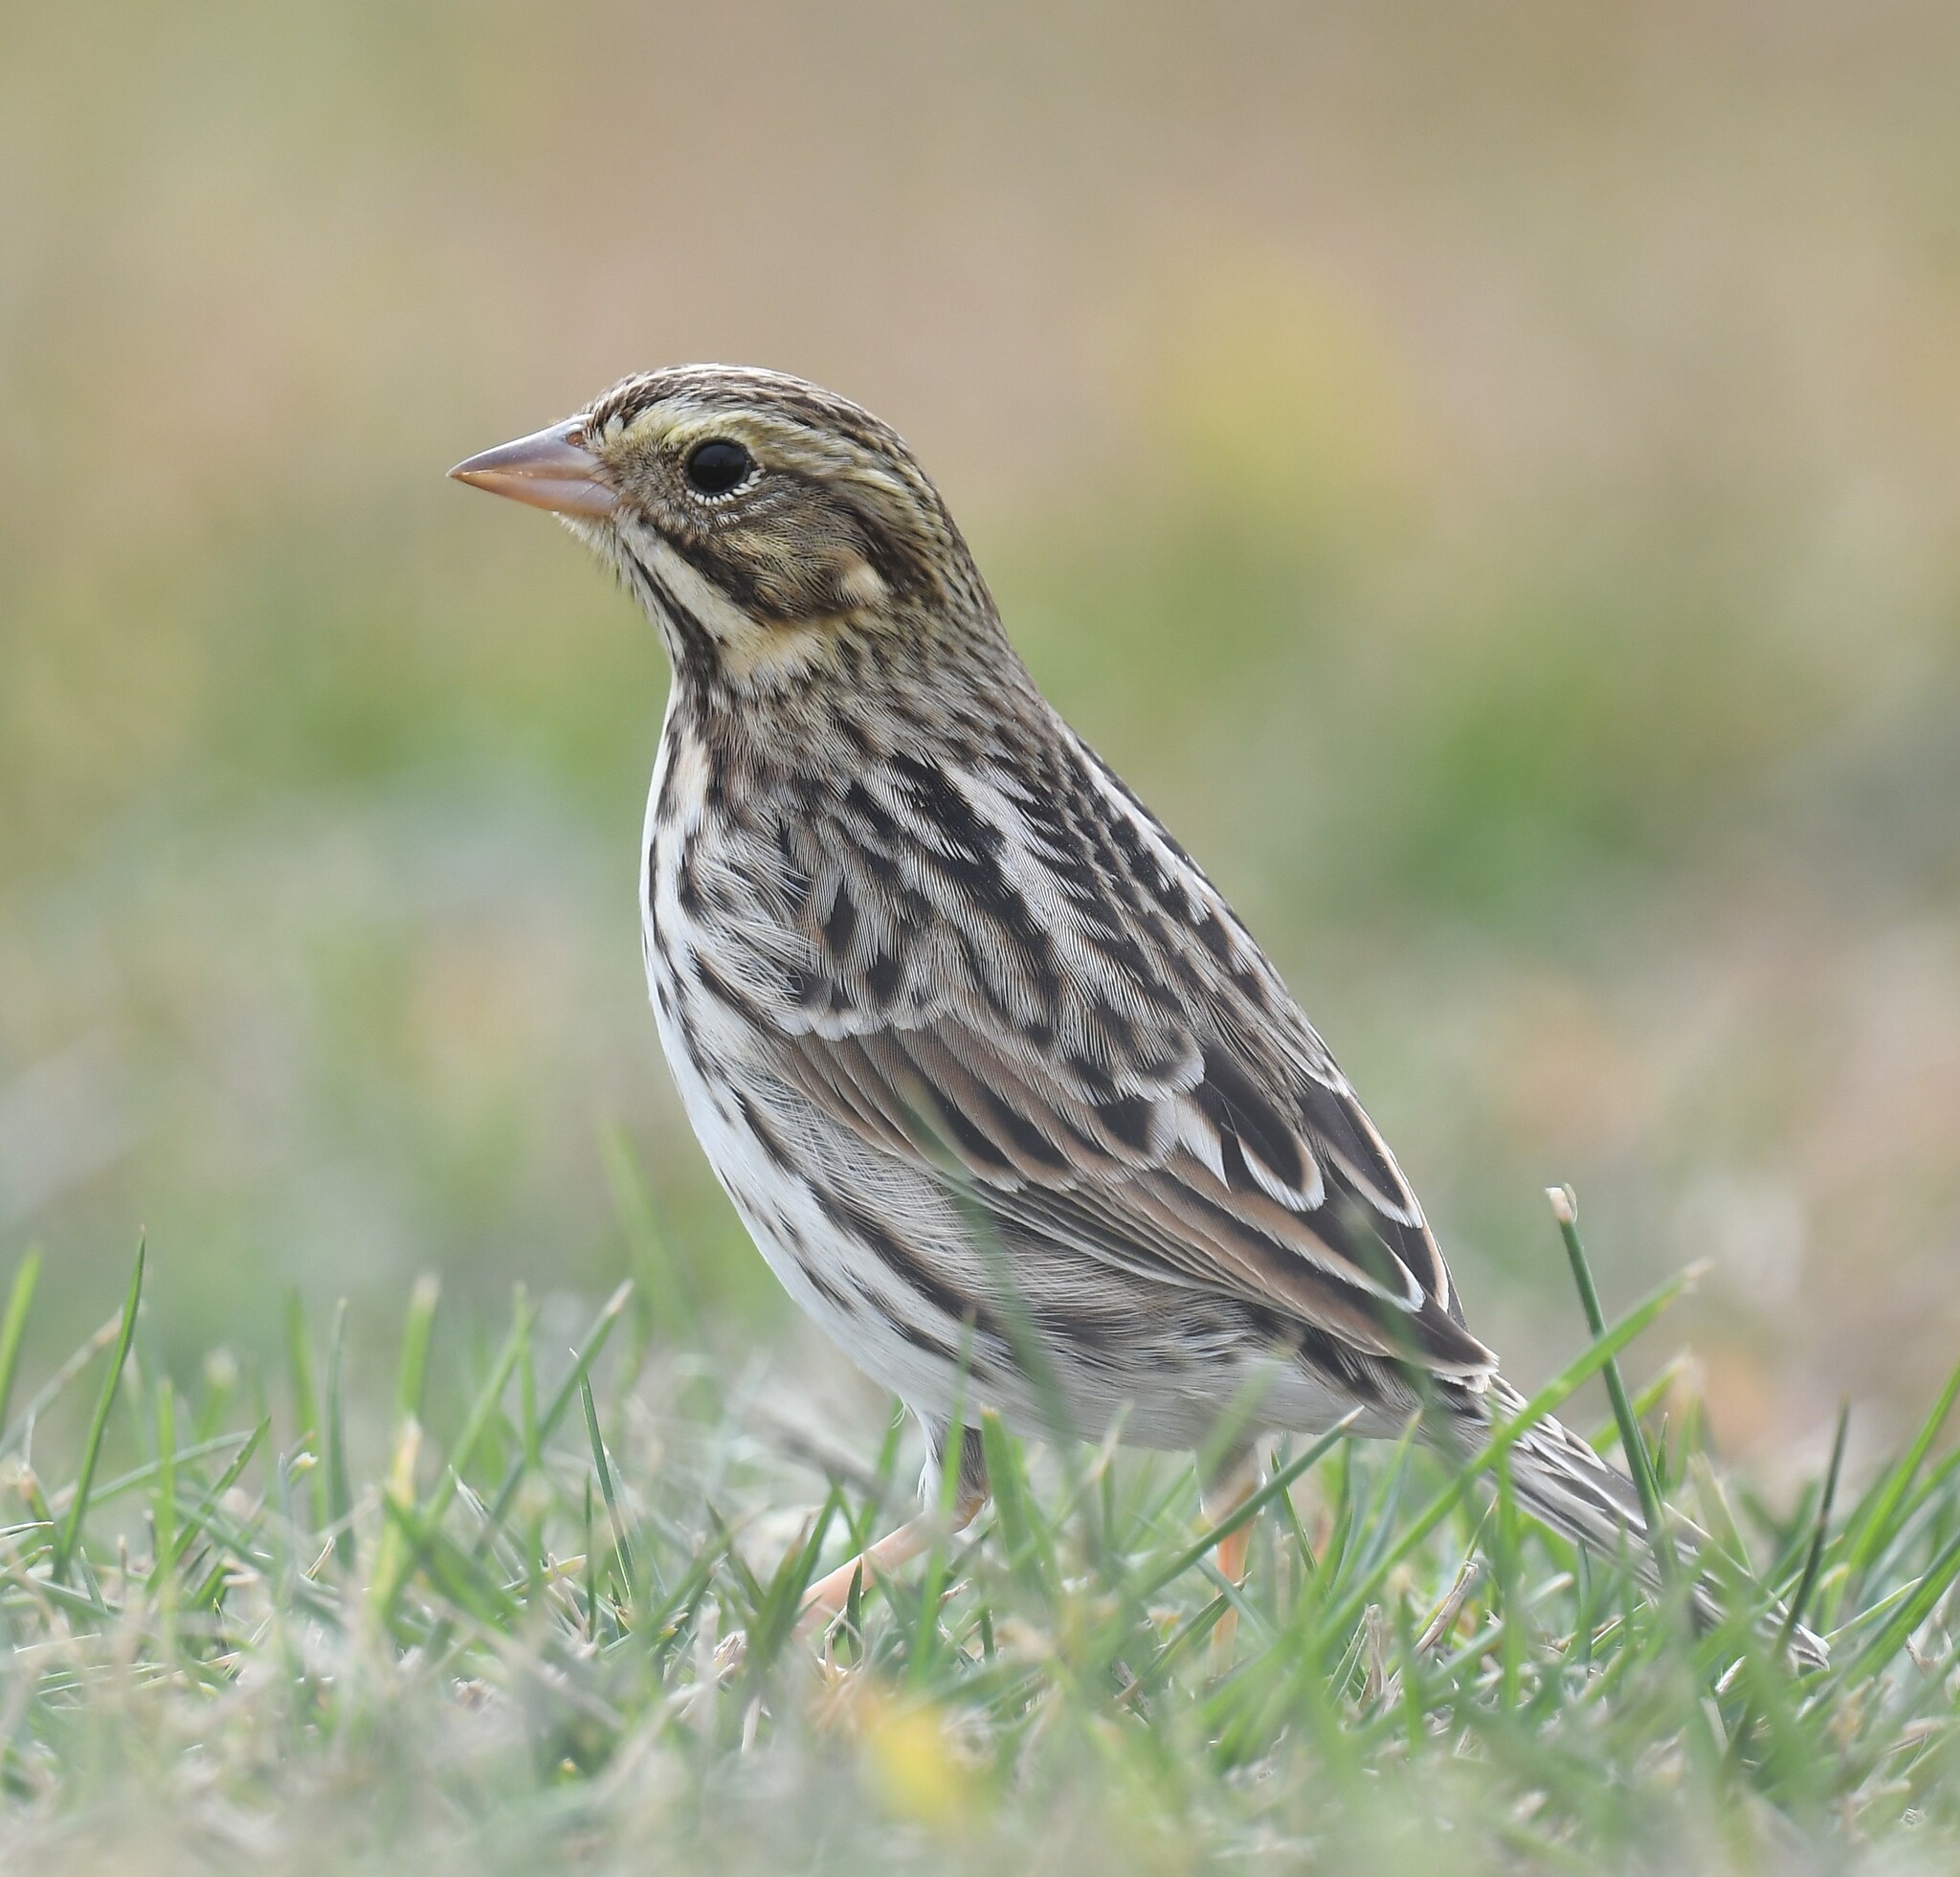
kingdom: Animalia
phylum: Chordata
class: Aves
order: Passeriformes
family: Passerellidae
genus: Passerculus
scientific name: Passerculus sandwichensis
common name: Savannah sparrow
